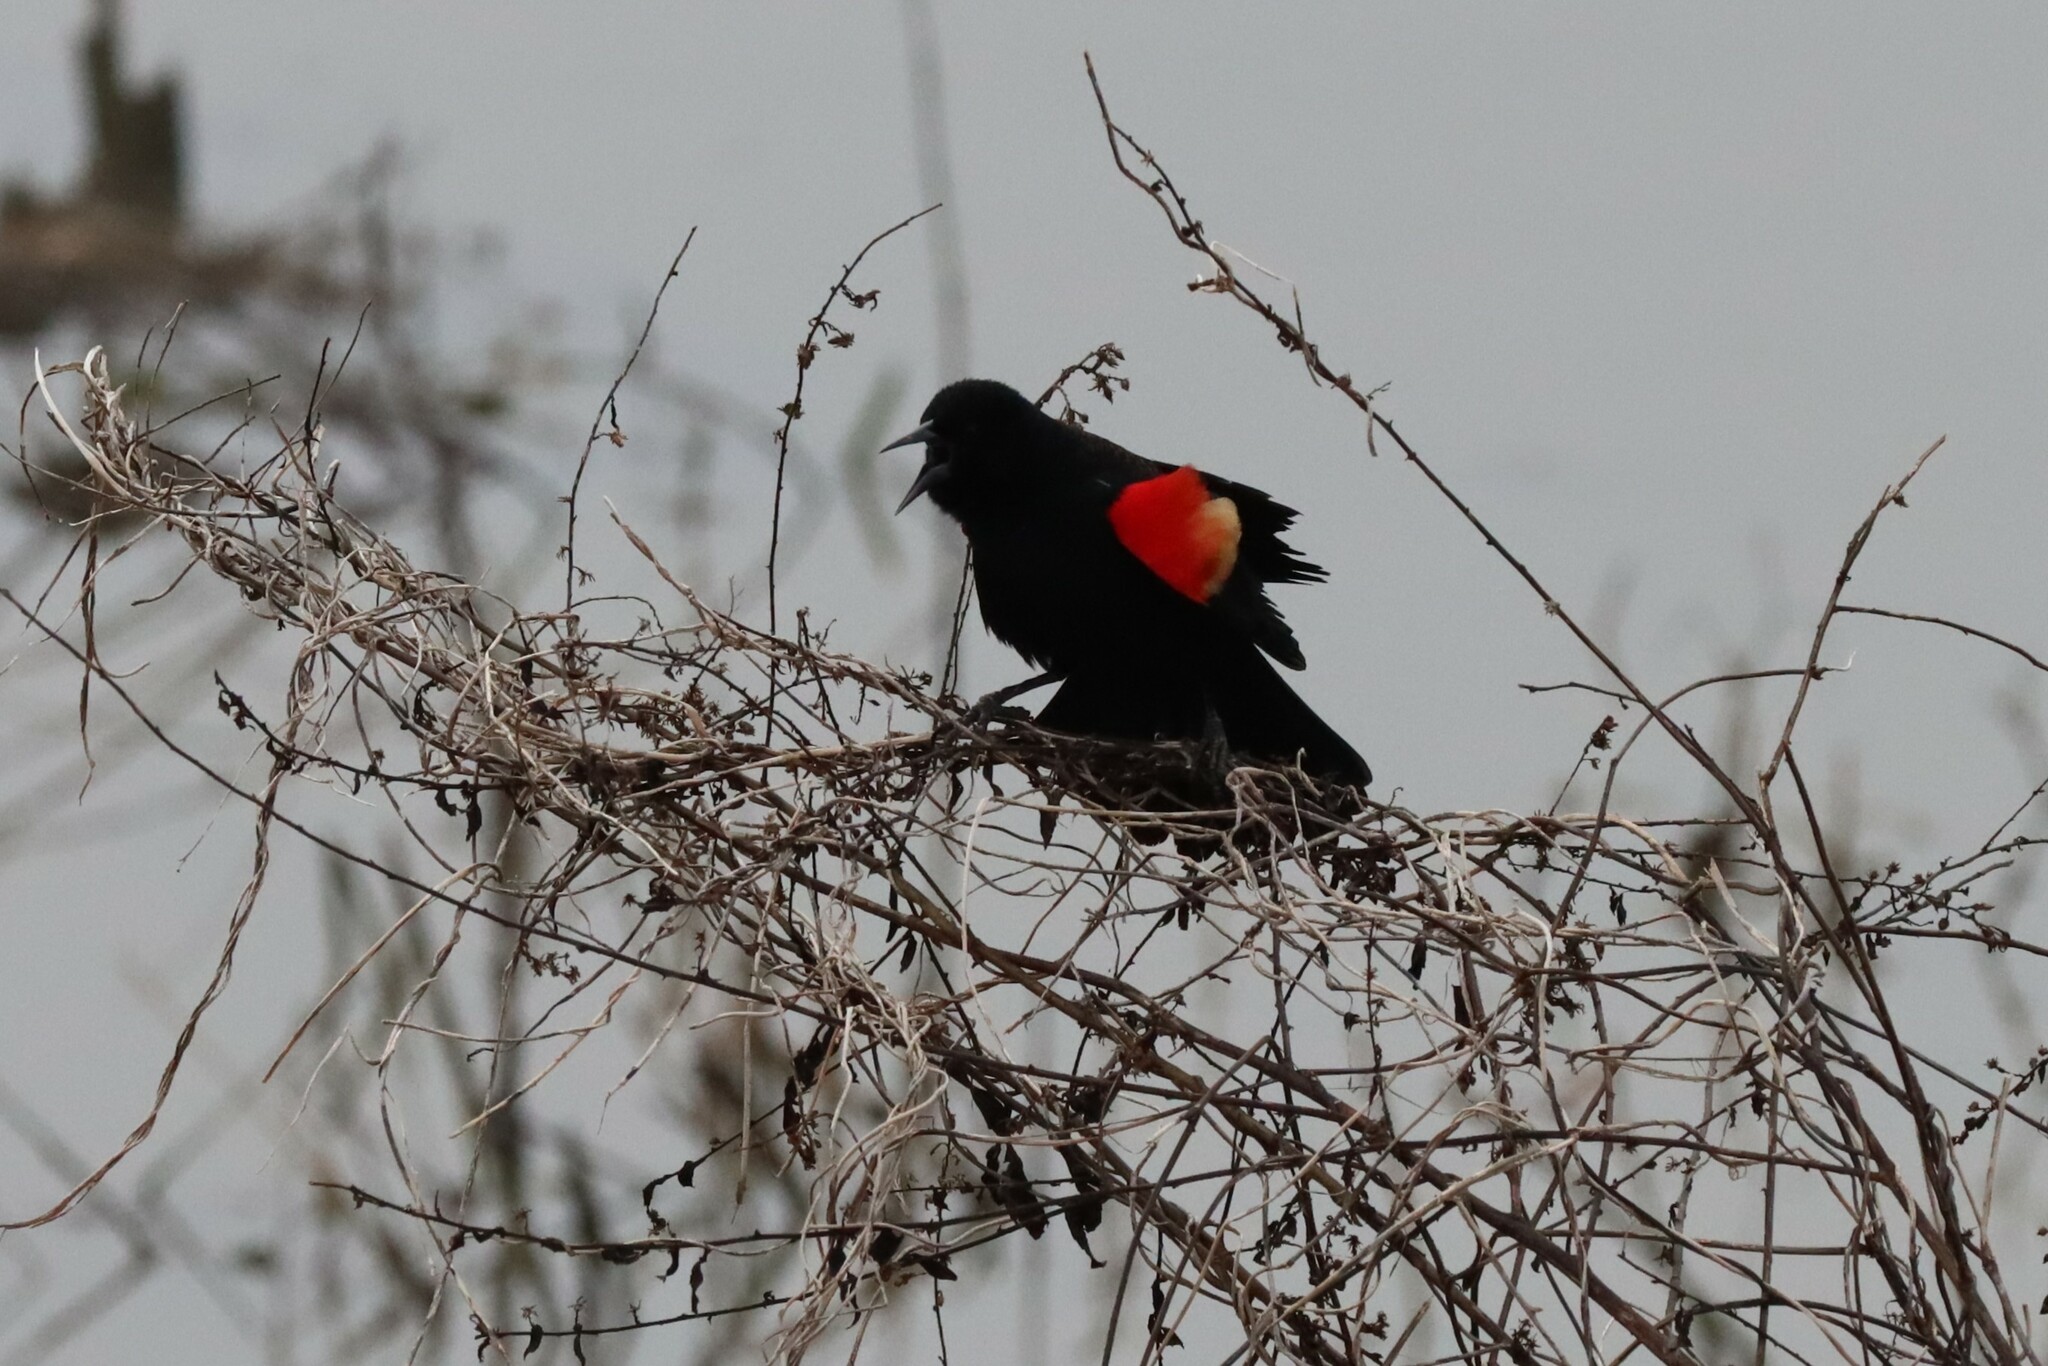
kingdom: Animalia
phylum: Chordata
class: Aves
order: Passeriformes
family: Icteridae
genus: Agelaius
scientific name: Agelaius phoeniceus
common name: Red-winged blackbird
